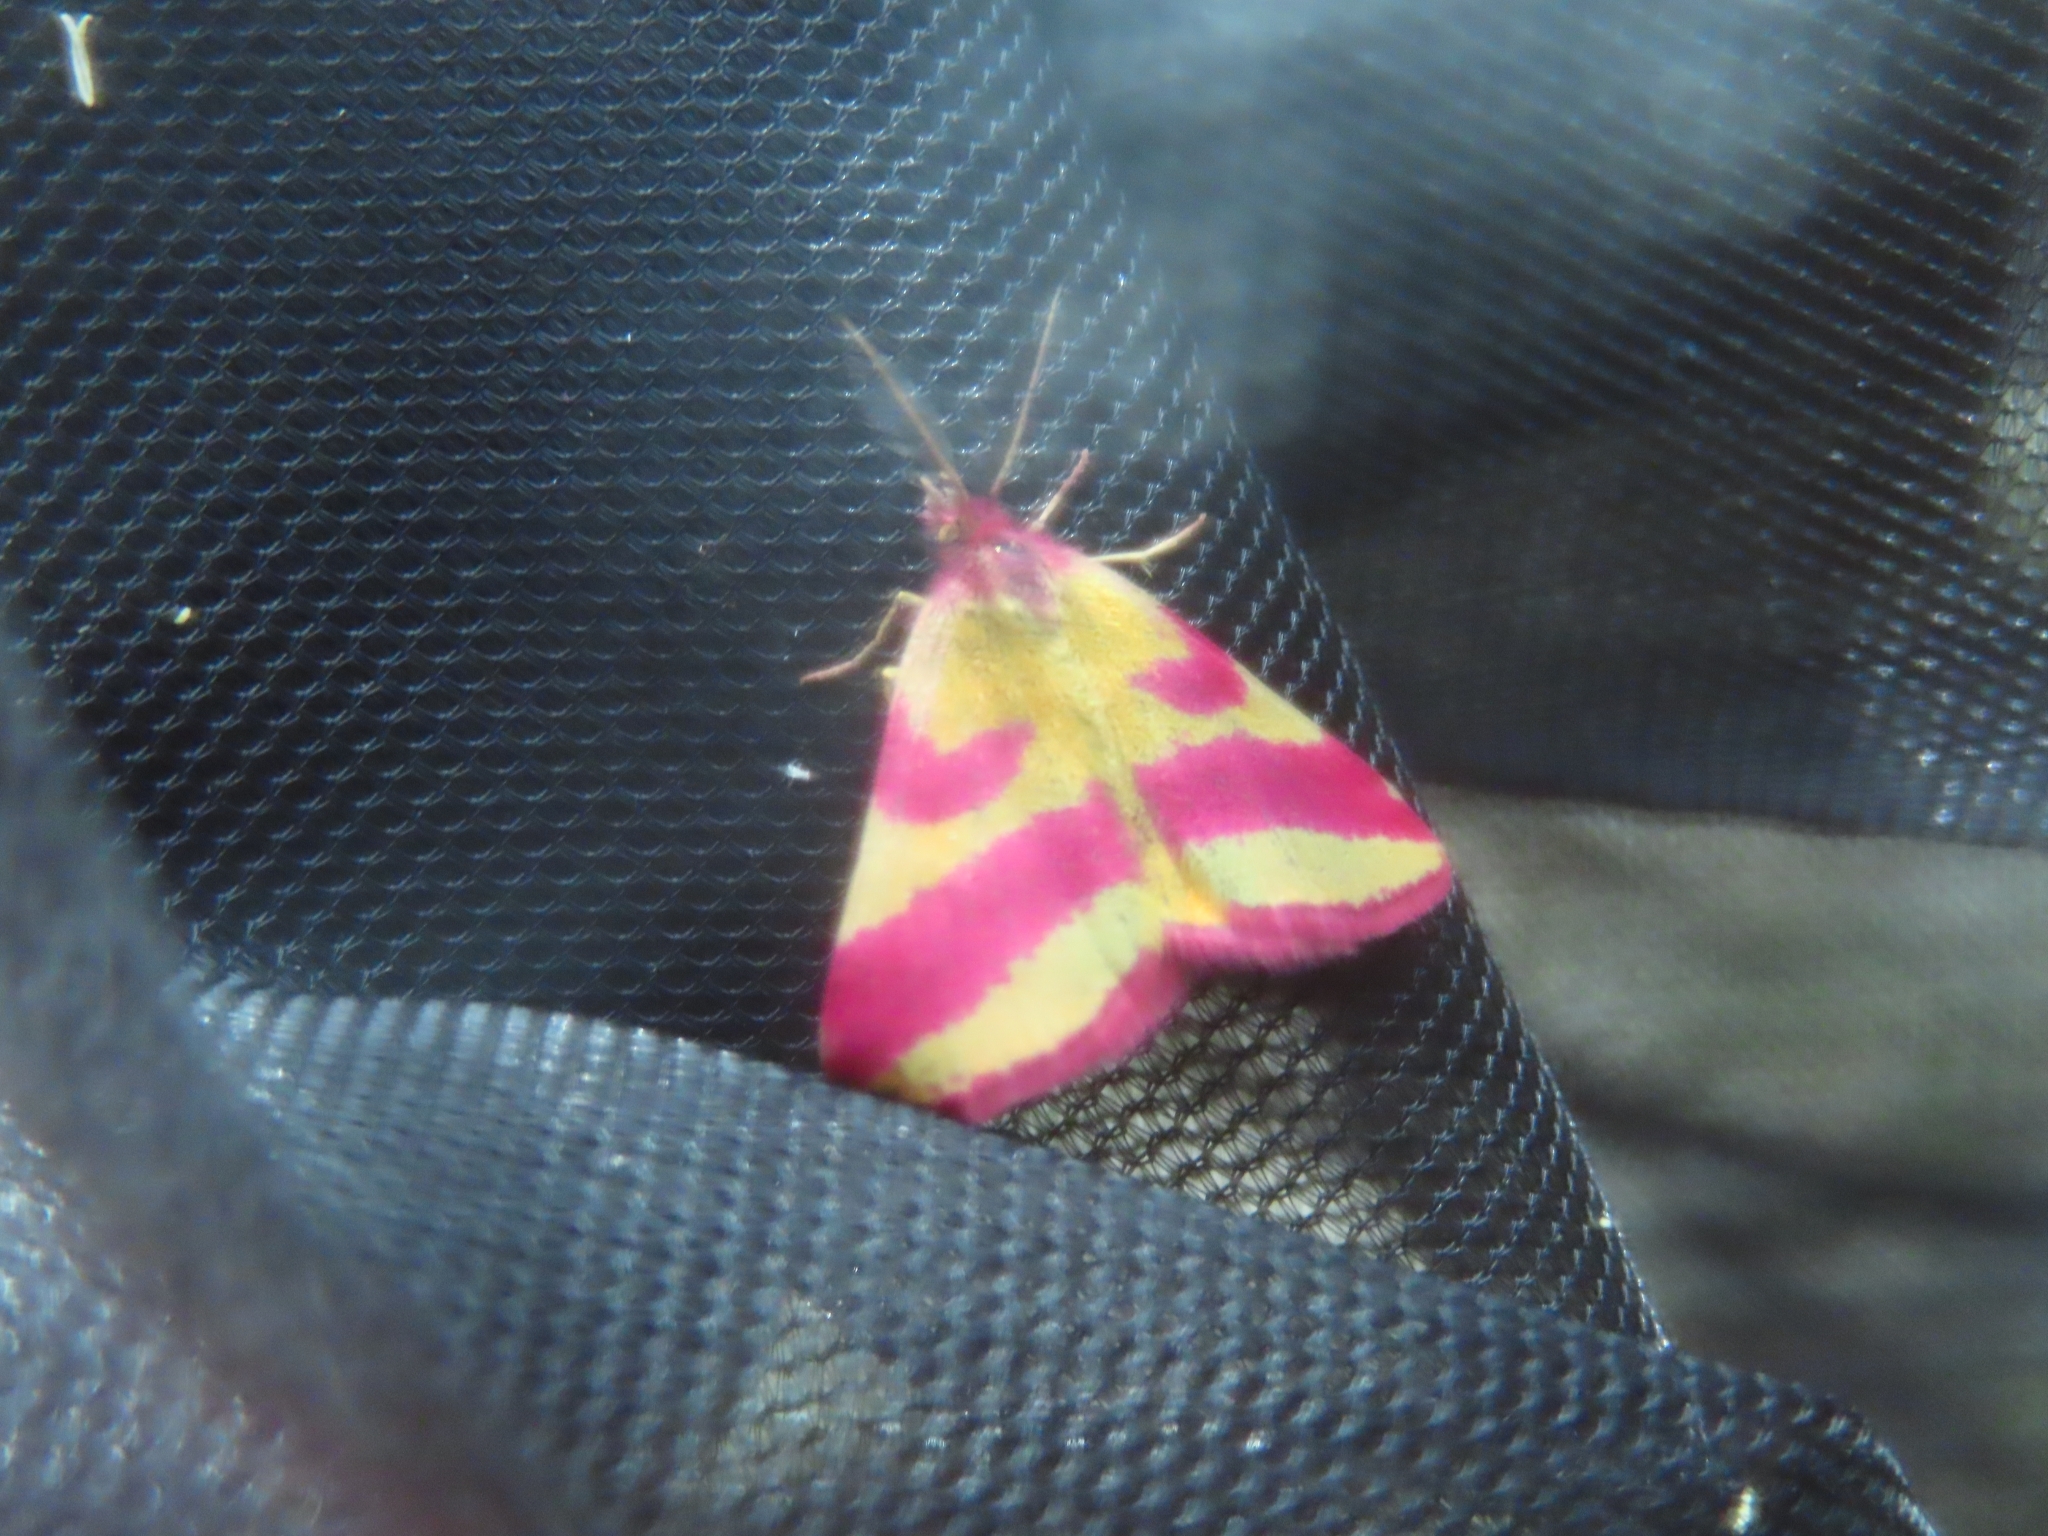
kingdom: Animalia
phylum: Arthropoda
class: Insecta
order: Lepidoptera
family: Geometridae
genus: Lythria
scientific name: Lythria cruentaria
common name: Purple-barred yellow
